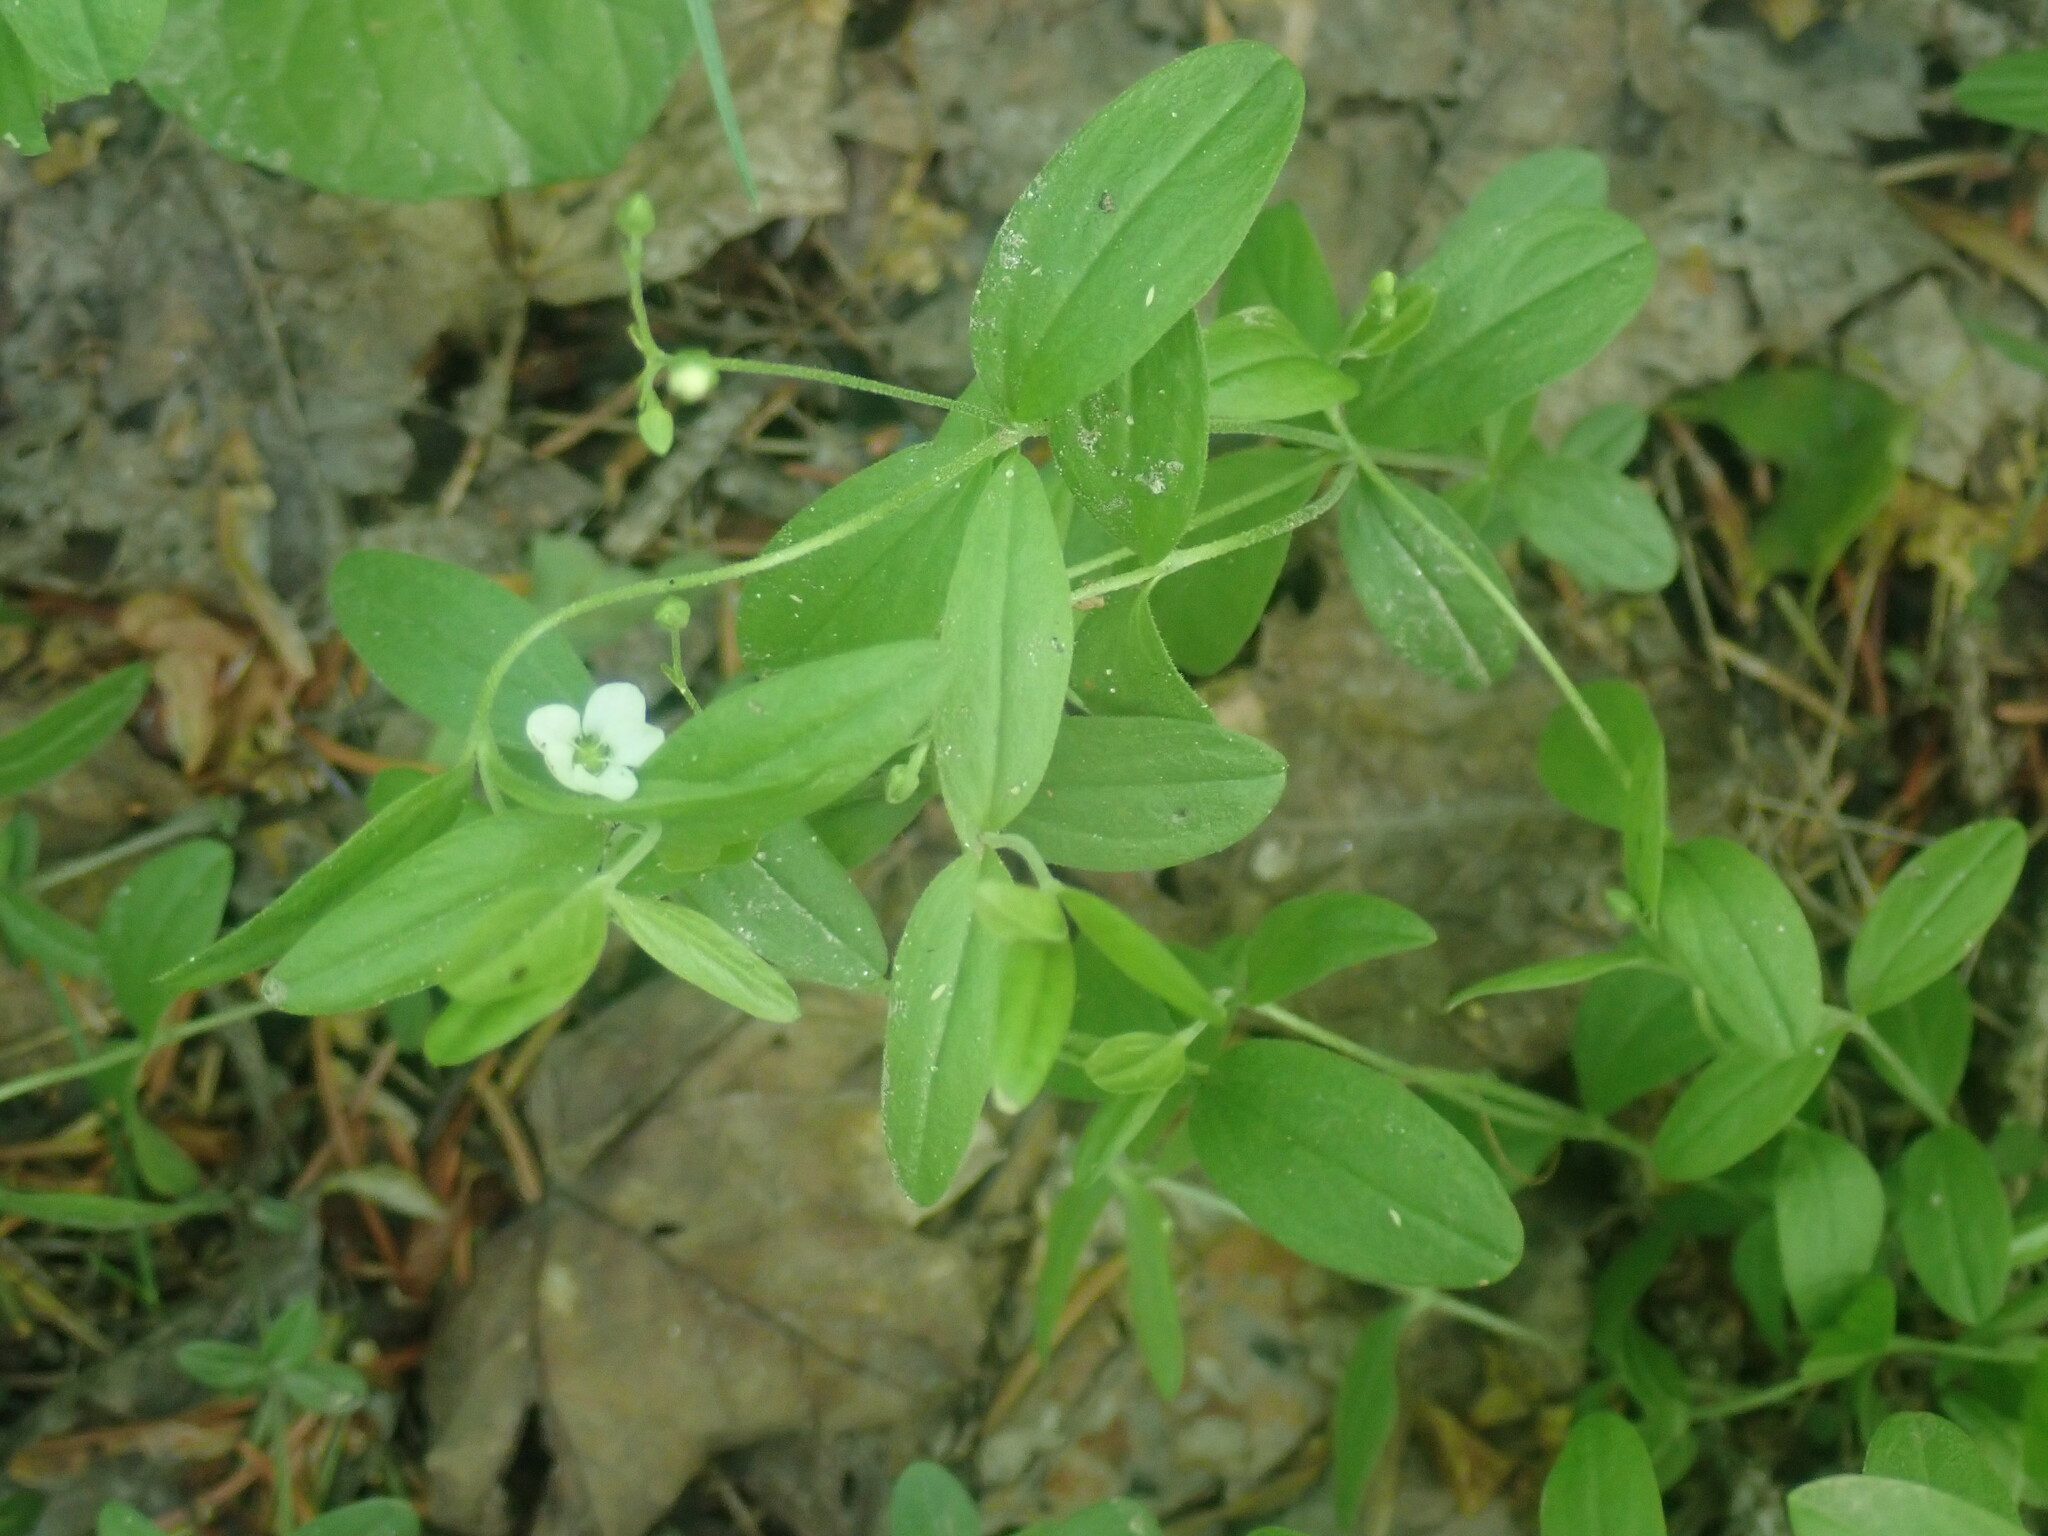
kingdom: Plantae
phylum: Tracheophyta
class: Magnoliopsida
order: Caryophyllales
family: Caryophyllaceae
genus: Moehringia
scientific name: Moehringia lateriflora
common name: Blunt-leaved sandwort
